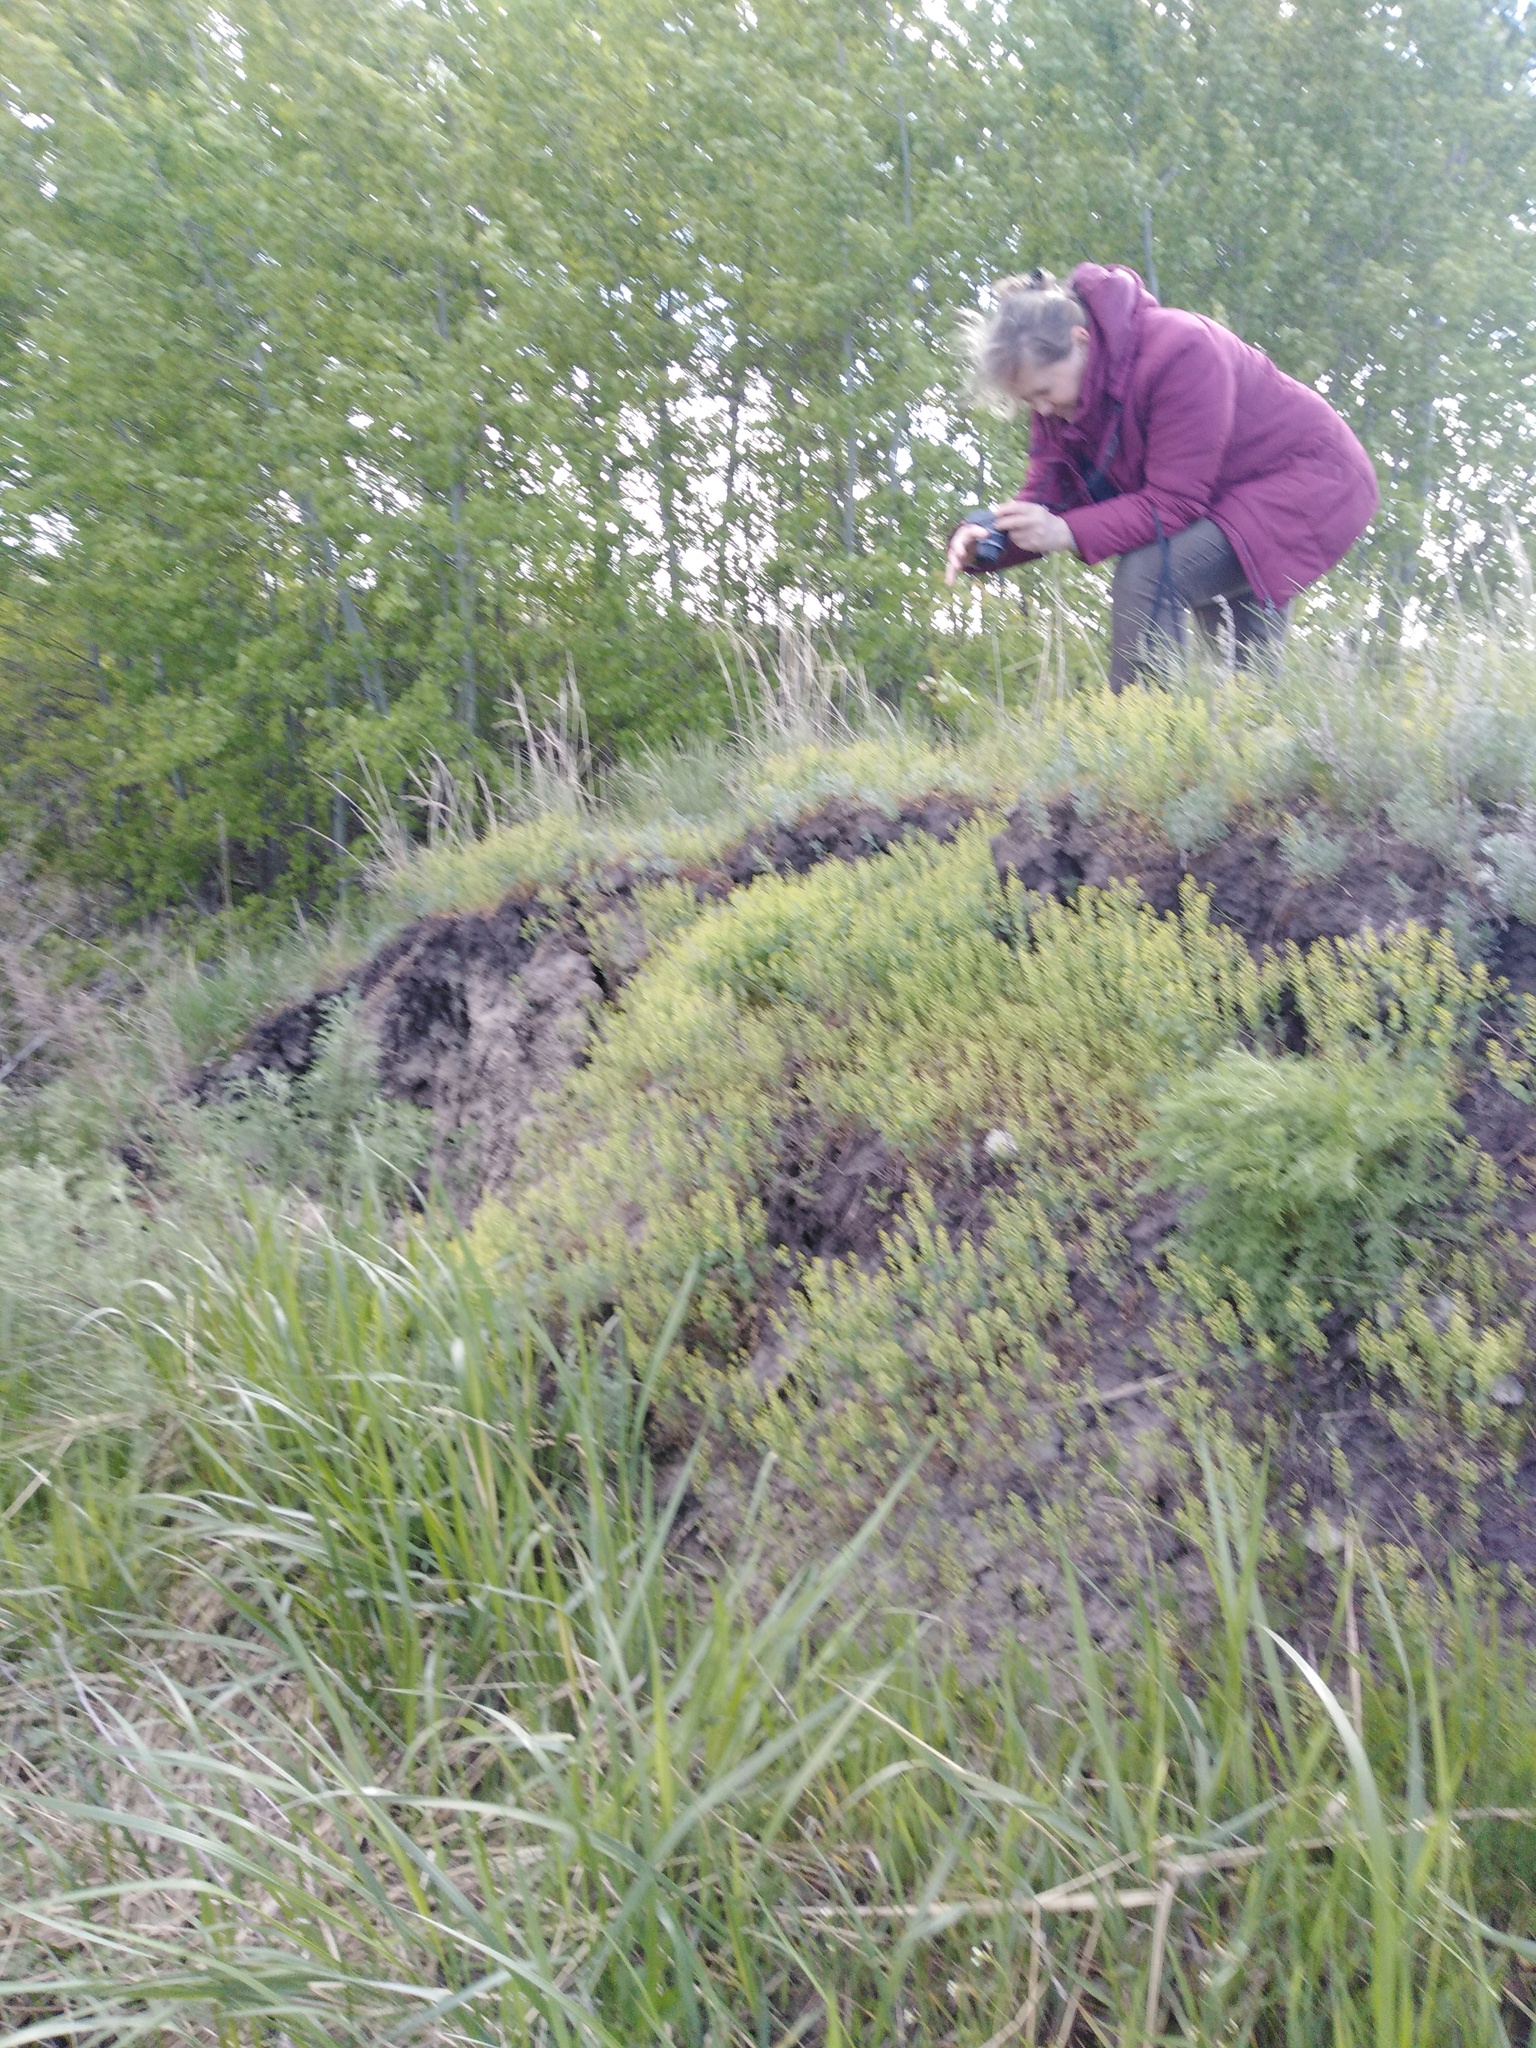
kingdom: Plantae
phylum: Tracheophyta
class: Magnoliopsida
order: Brassicales
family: Brassicaceae
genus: Lepidium
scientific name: Lepidium perfoliatum
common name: Perfoliate pepperwort
